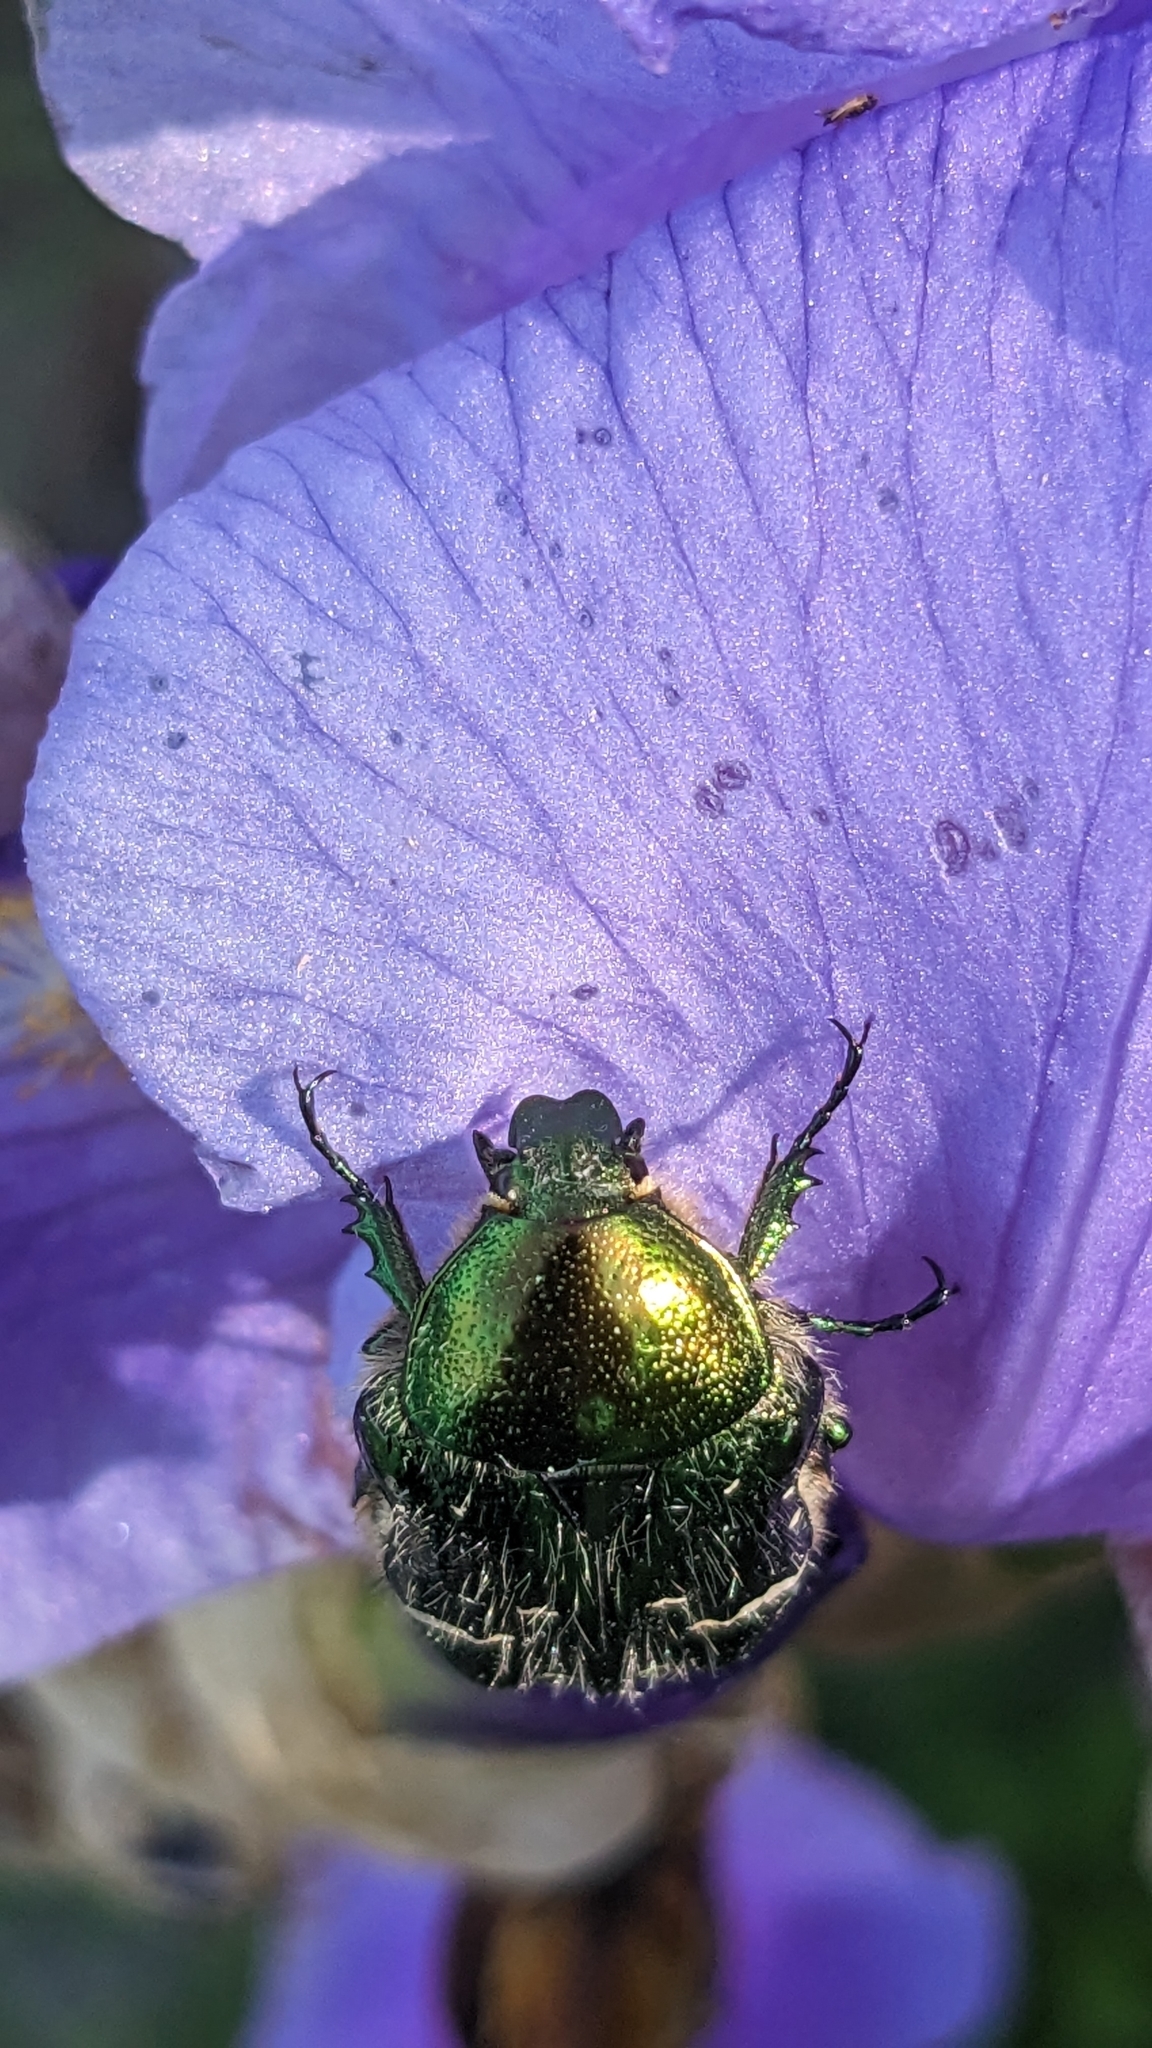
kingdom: Animalia
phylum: Arthropoda
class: Insecta
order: Coleoptera
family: Scarabaeidae
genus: Cetonia
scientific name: Cetonia aurata
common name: Rose chafer
